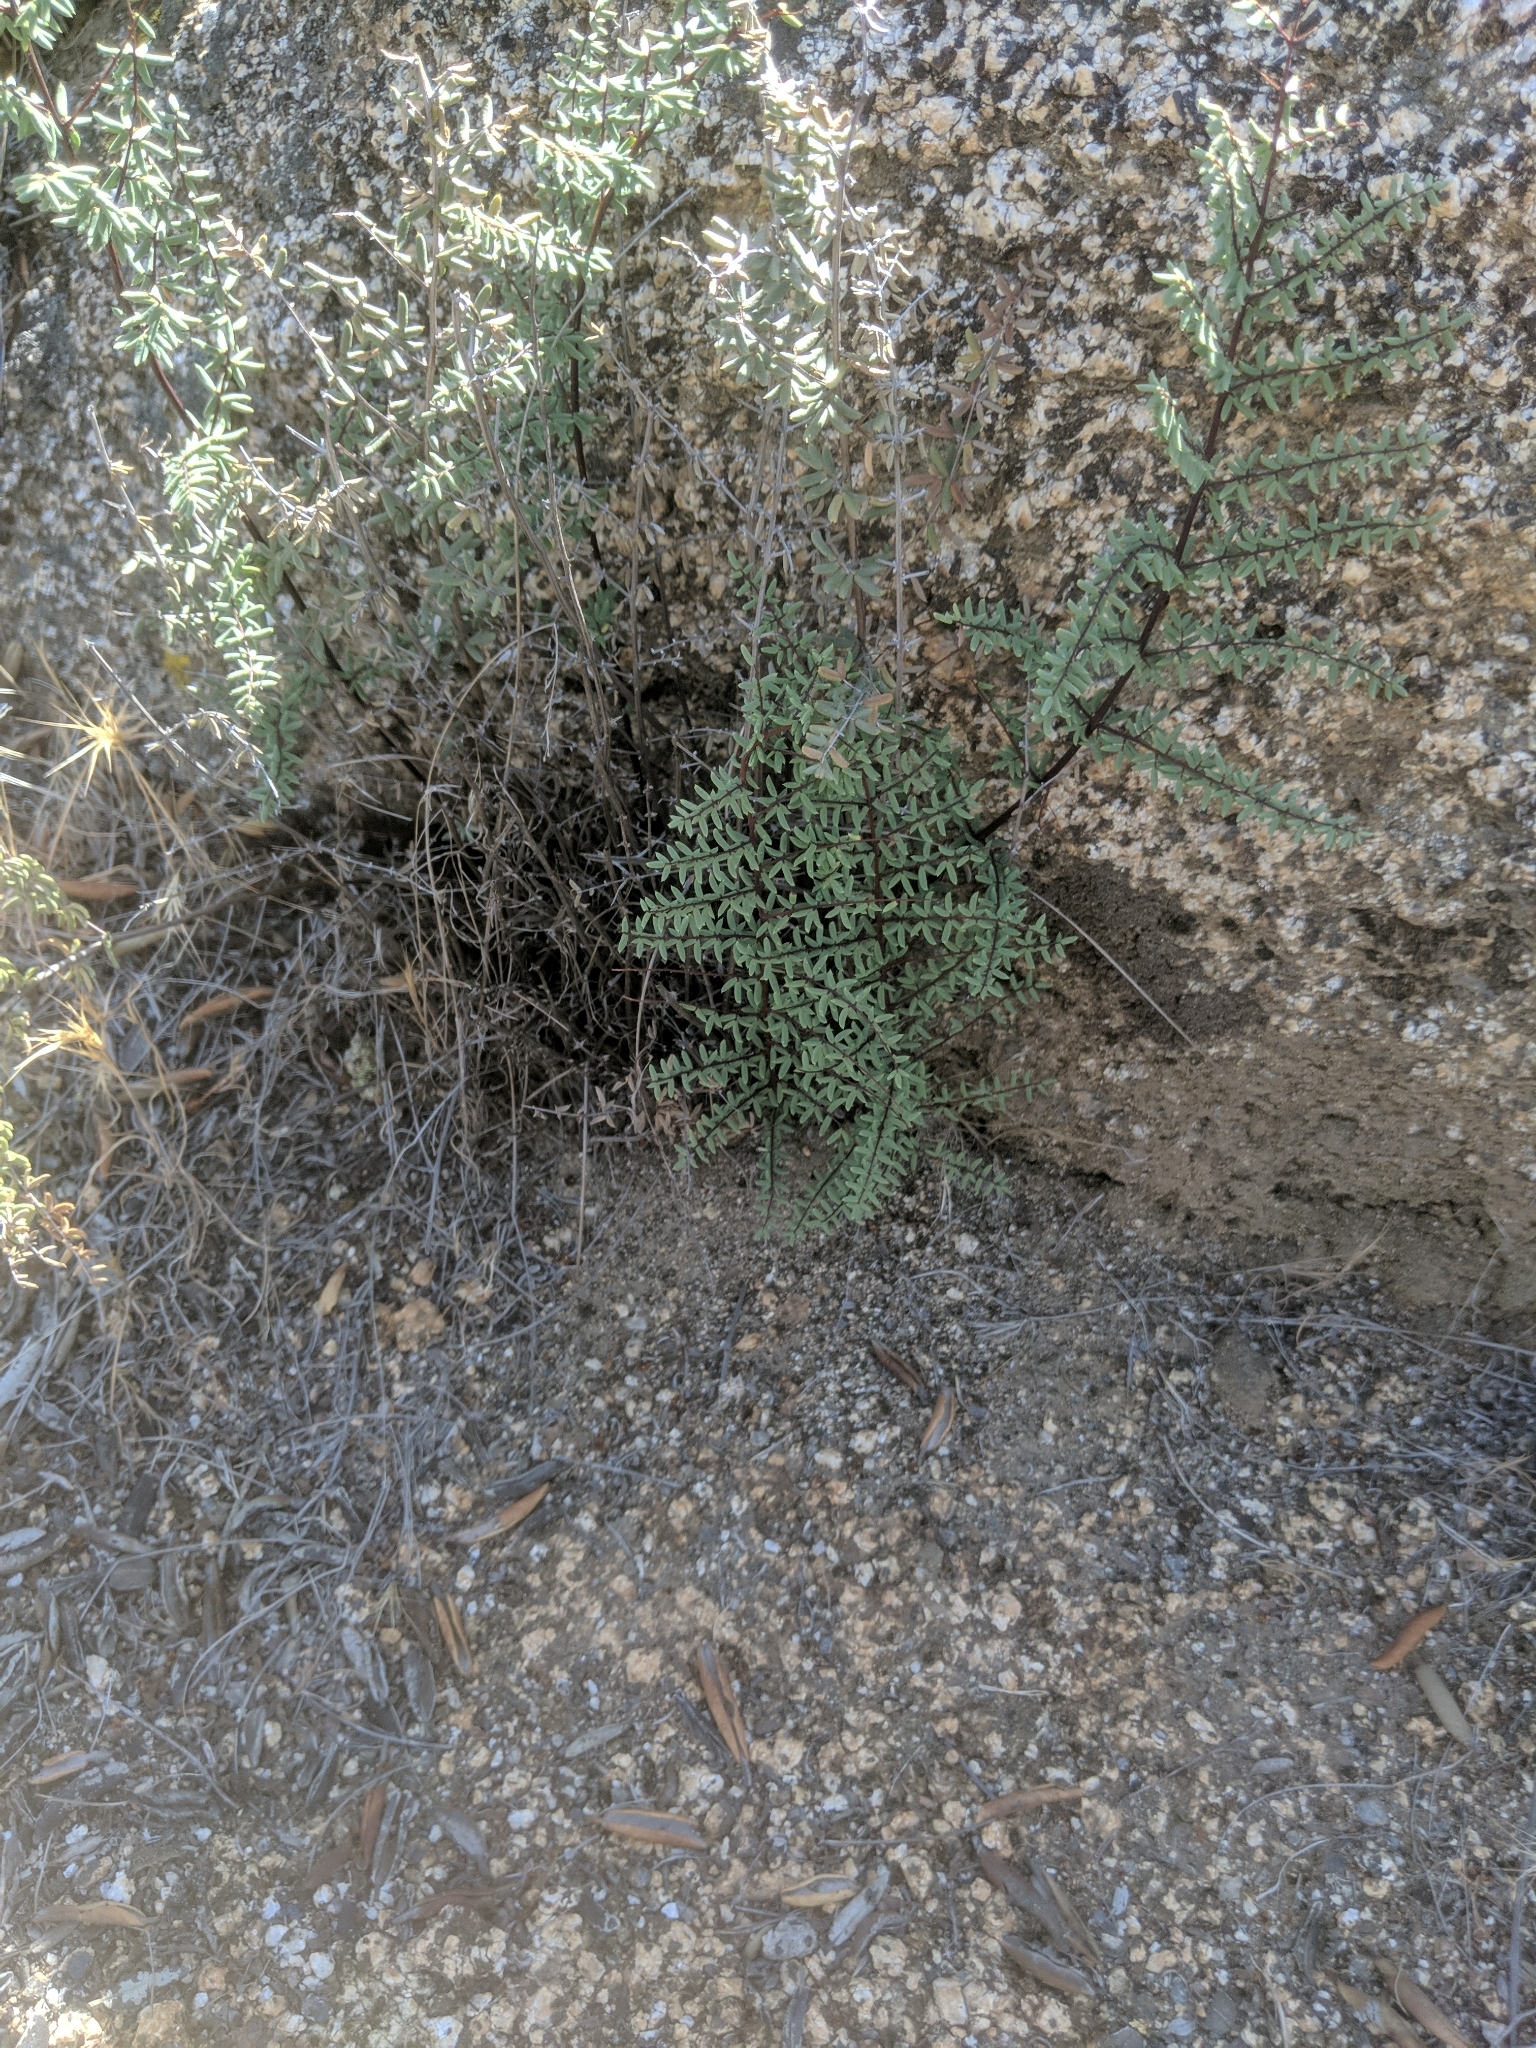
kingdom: Plantae
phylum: Tracheophyta
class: Polypodiopsida
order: Polypodiales
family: Pteridaceae
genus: Pellaea
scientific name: Pellaea mucronata
